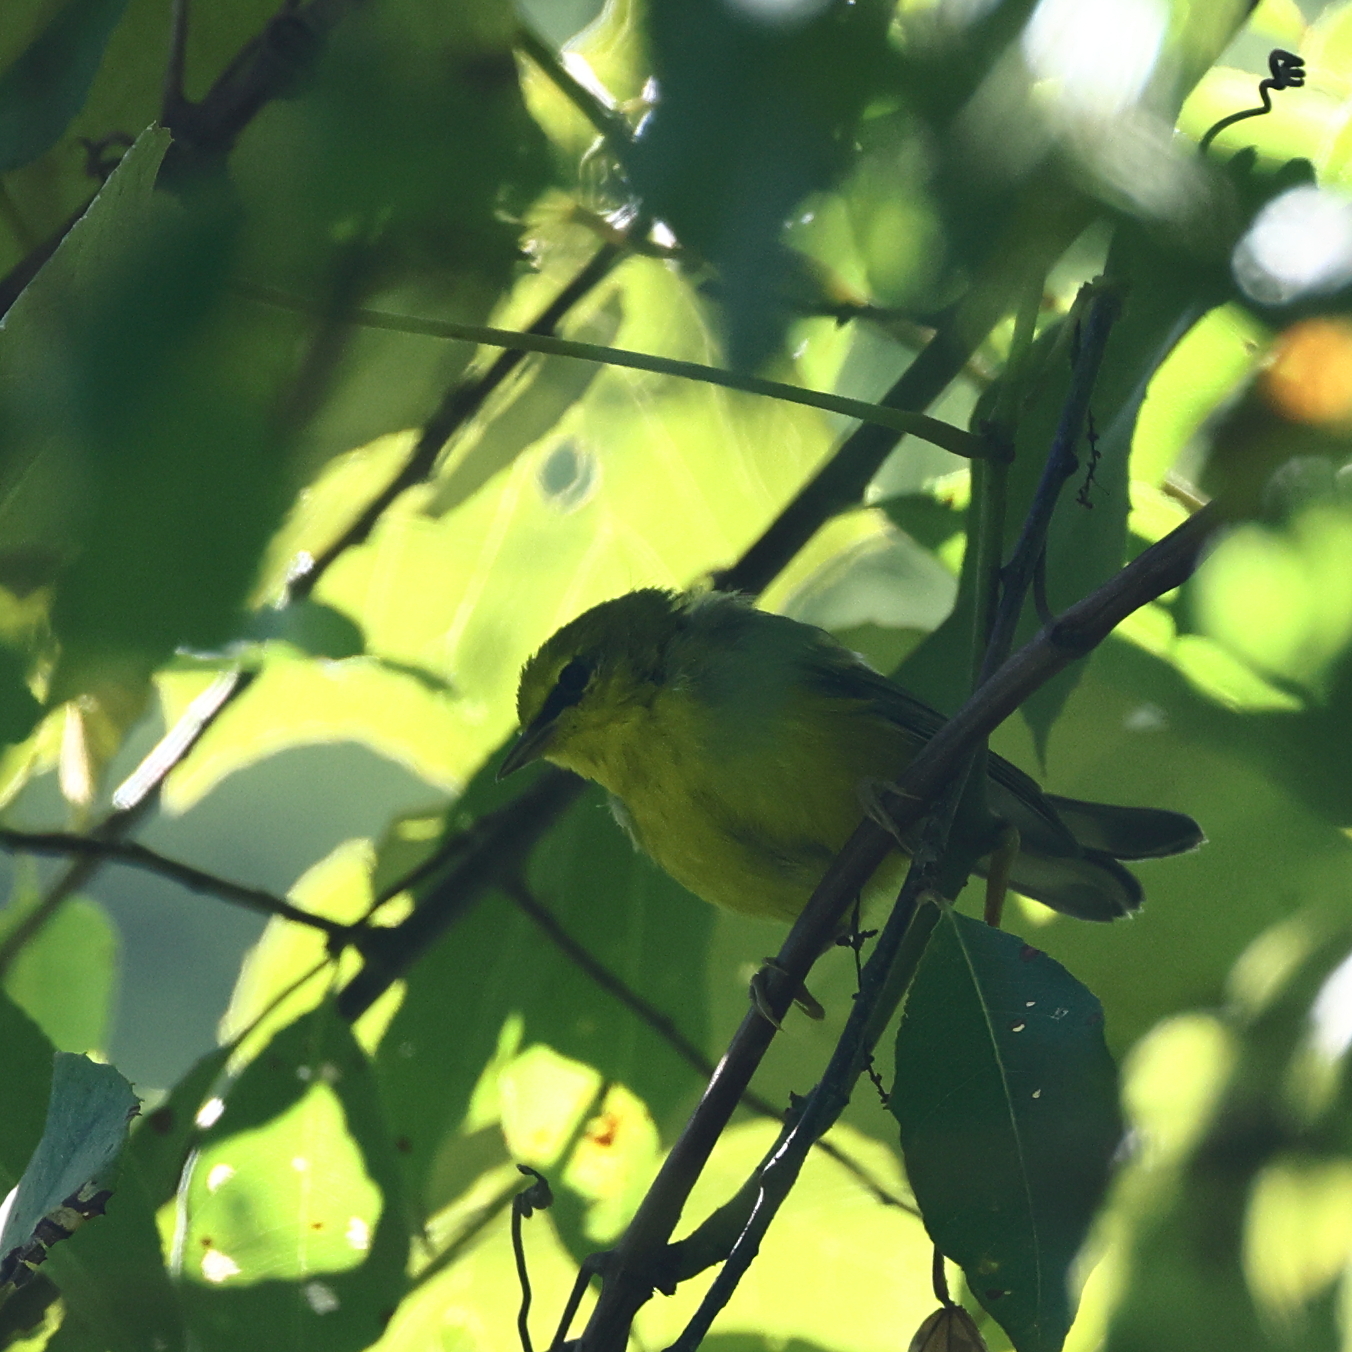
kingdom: Animalia
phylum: Chordata
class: Aves
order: Passeriformes
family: Parulidae
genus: Vermivora
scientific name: Vermivora cyanoptera
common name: Blue-winged warbler
